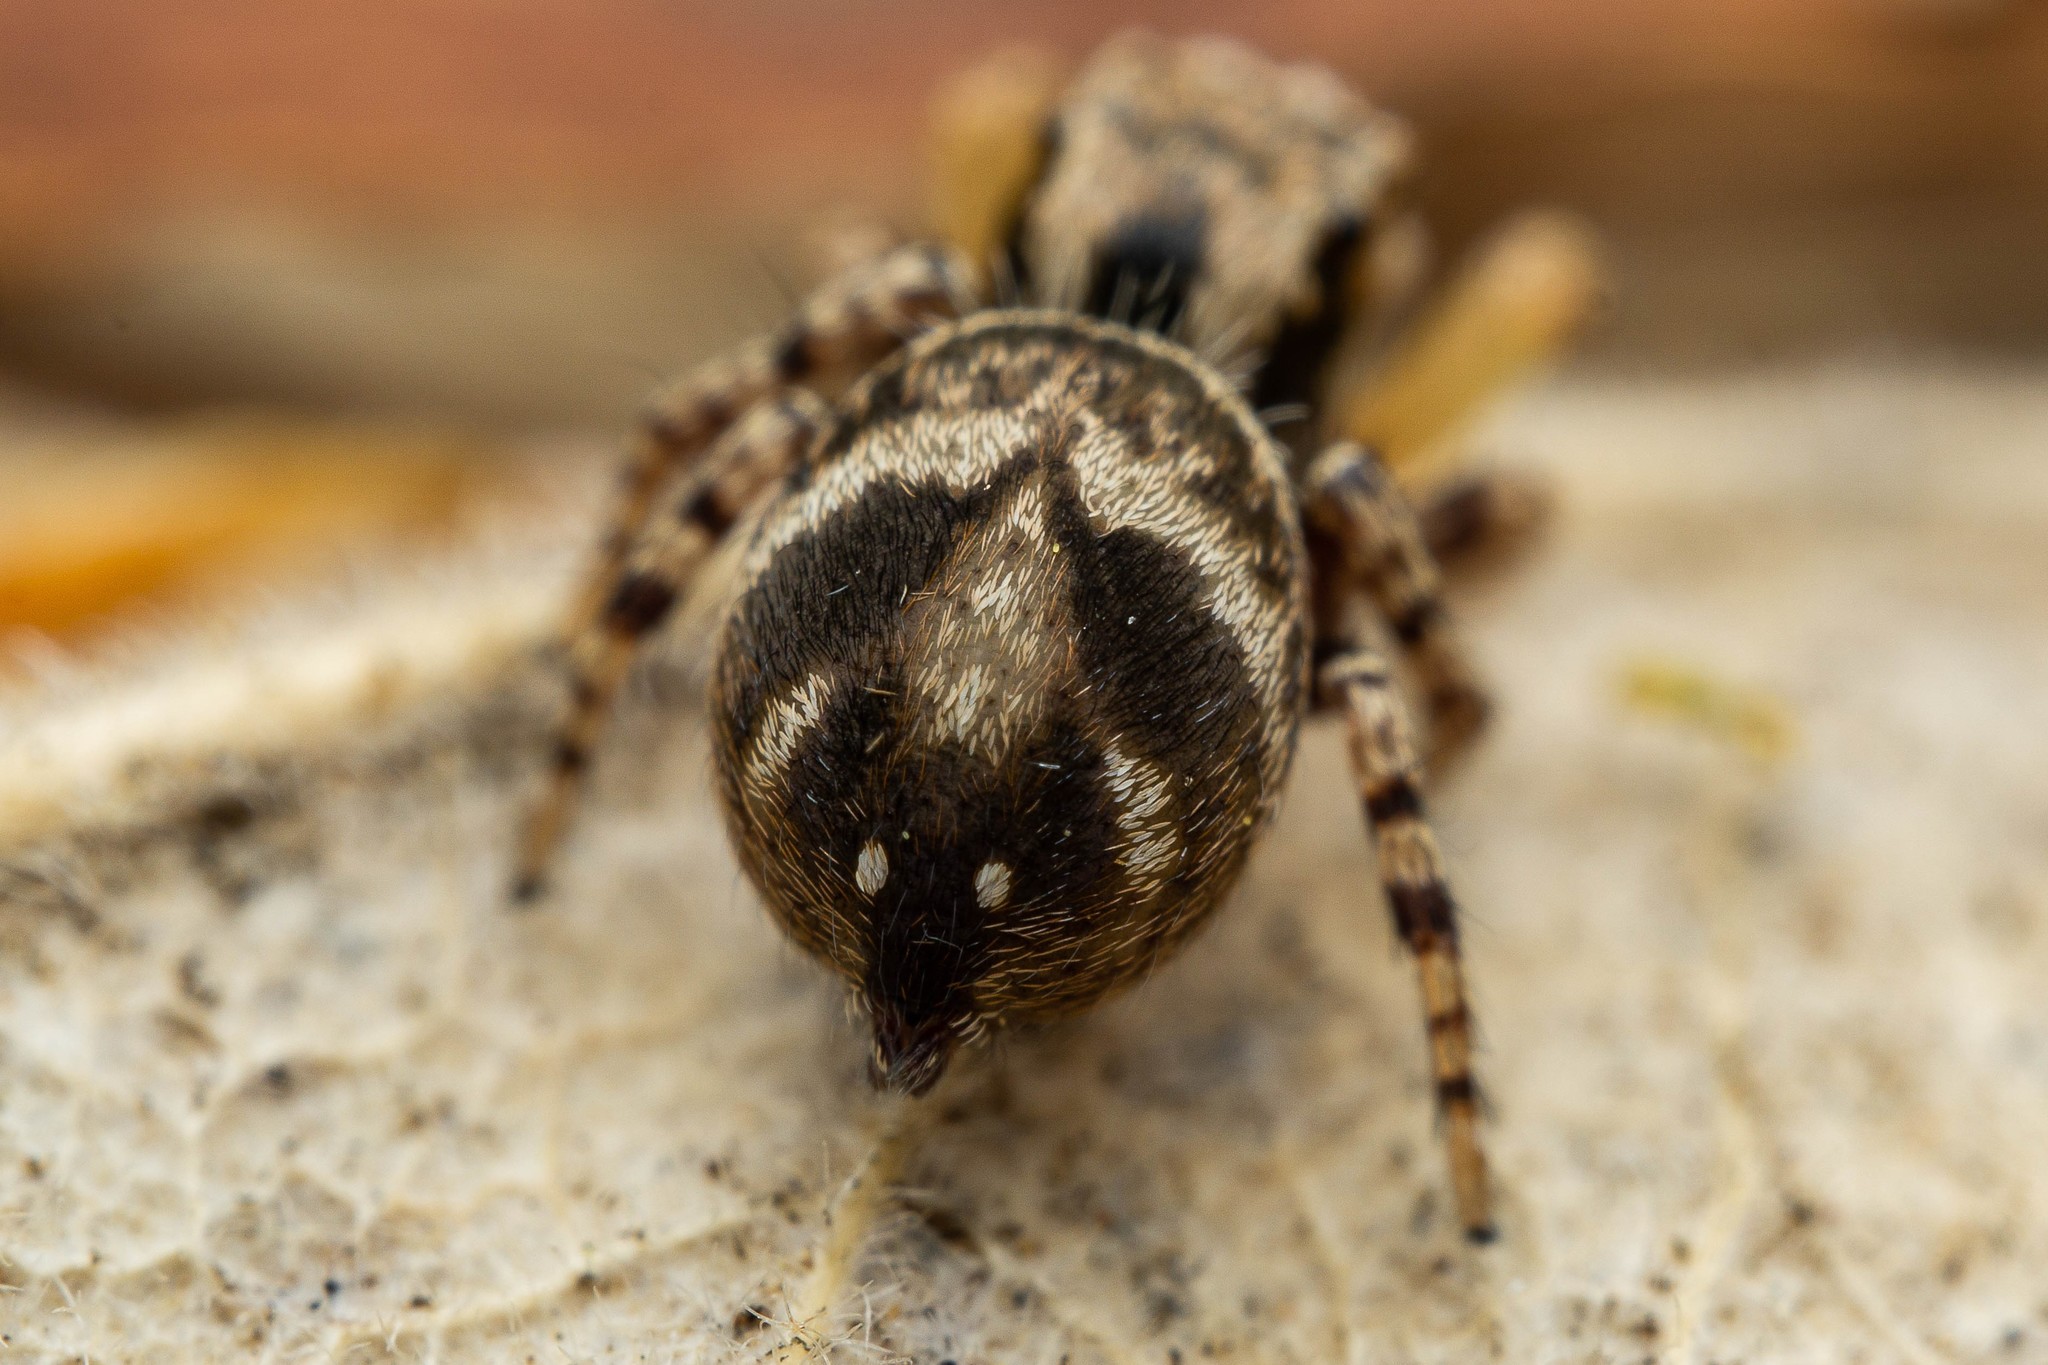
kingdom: Animalia
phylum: Arthropoda
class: Arachnida
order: Araneae
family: Salticidae
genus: Habronattus
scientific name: Habronattus geronimoi
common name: Jumping spiders
